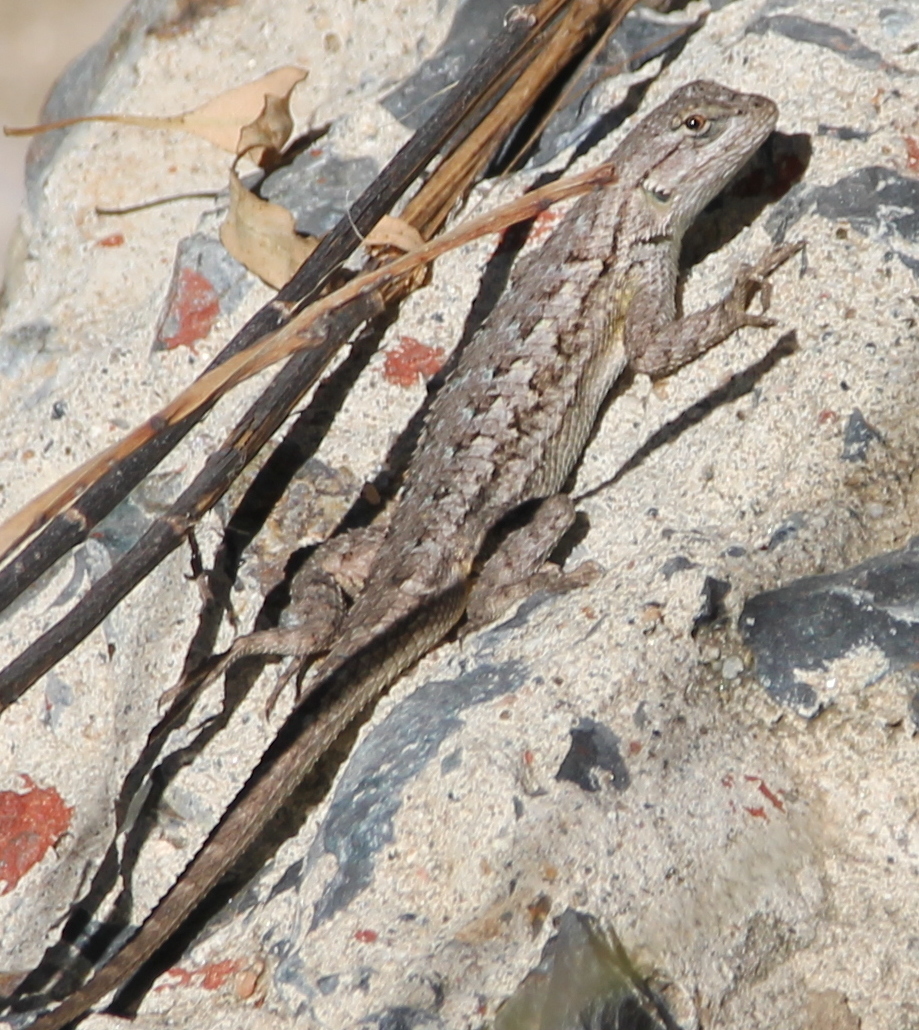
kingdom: Animalia
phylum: Chordata
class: Squamata
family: Phrynosomatidae
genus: Sceloporus
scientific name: Sceloporus occidentalis
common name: Western fence lizard
